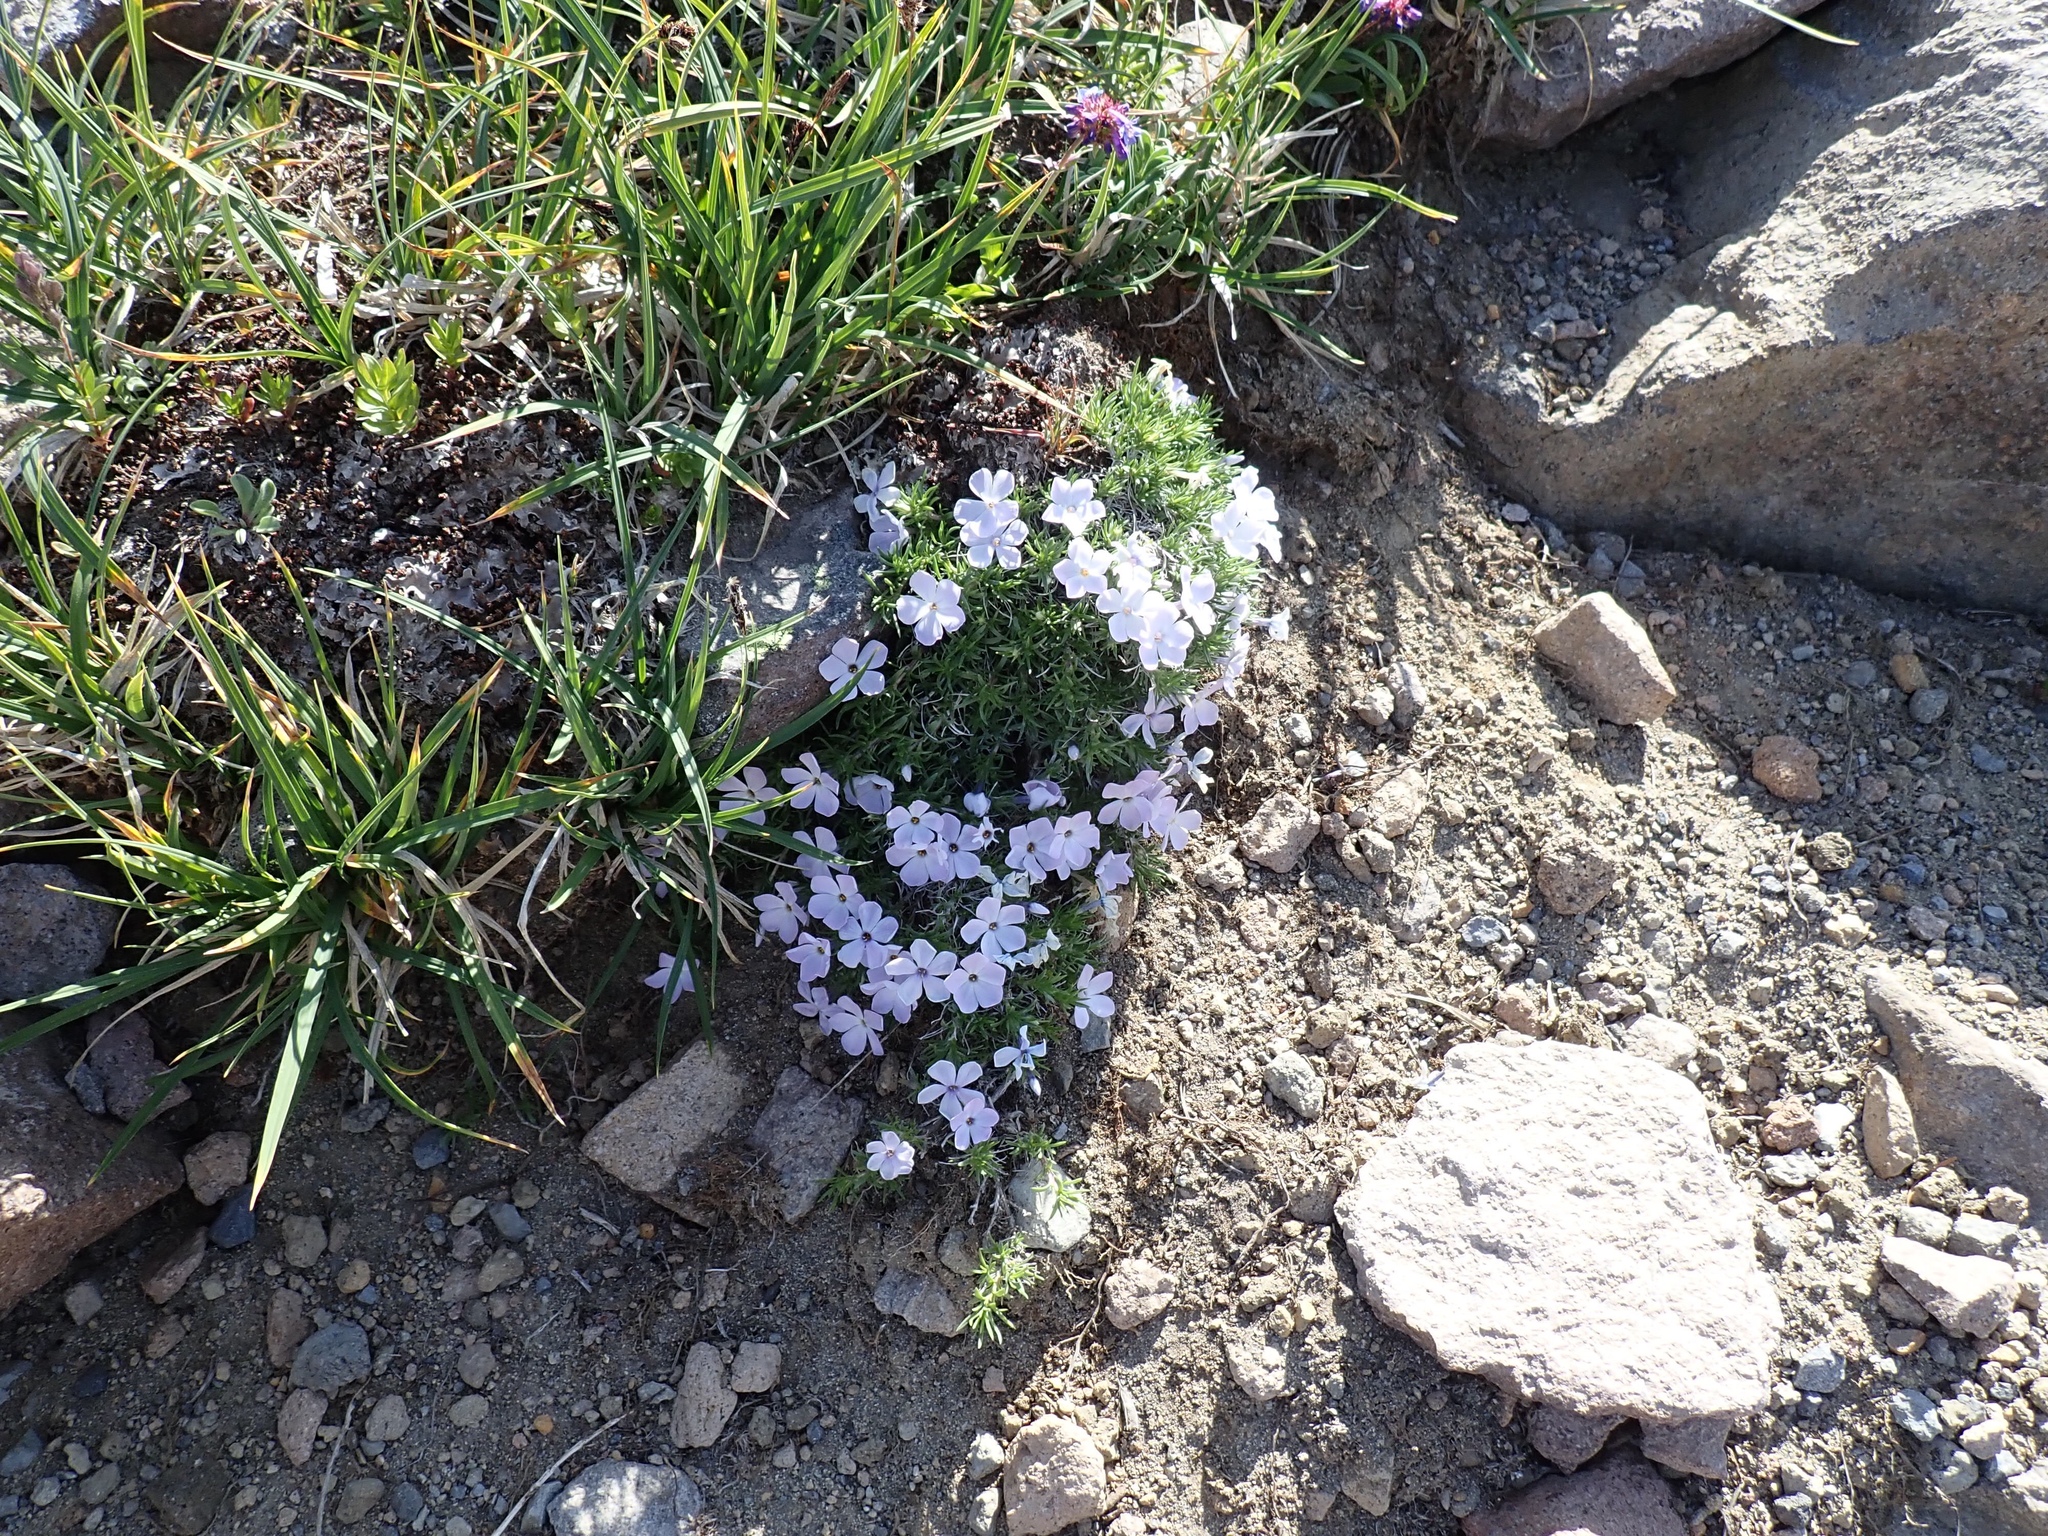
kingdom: Plantae
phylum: Tracheophyta
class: Magnoliopsida
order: Ericales
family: Polemoniaceae
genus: Phlox
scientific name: Phlox diffusa
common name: Mat phlox
